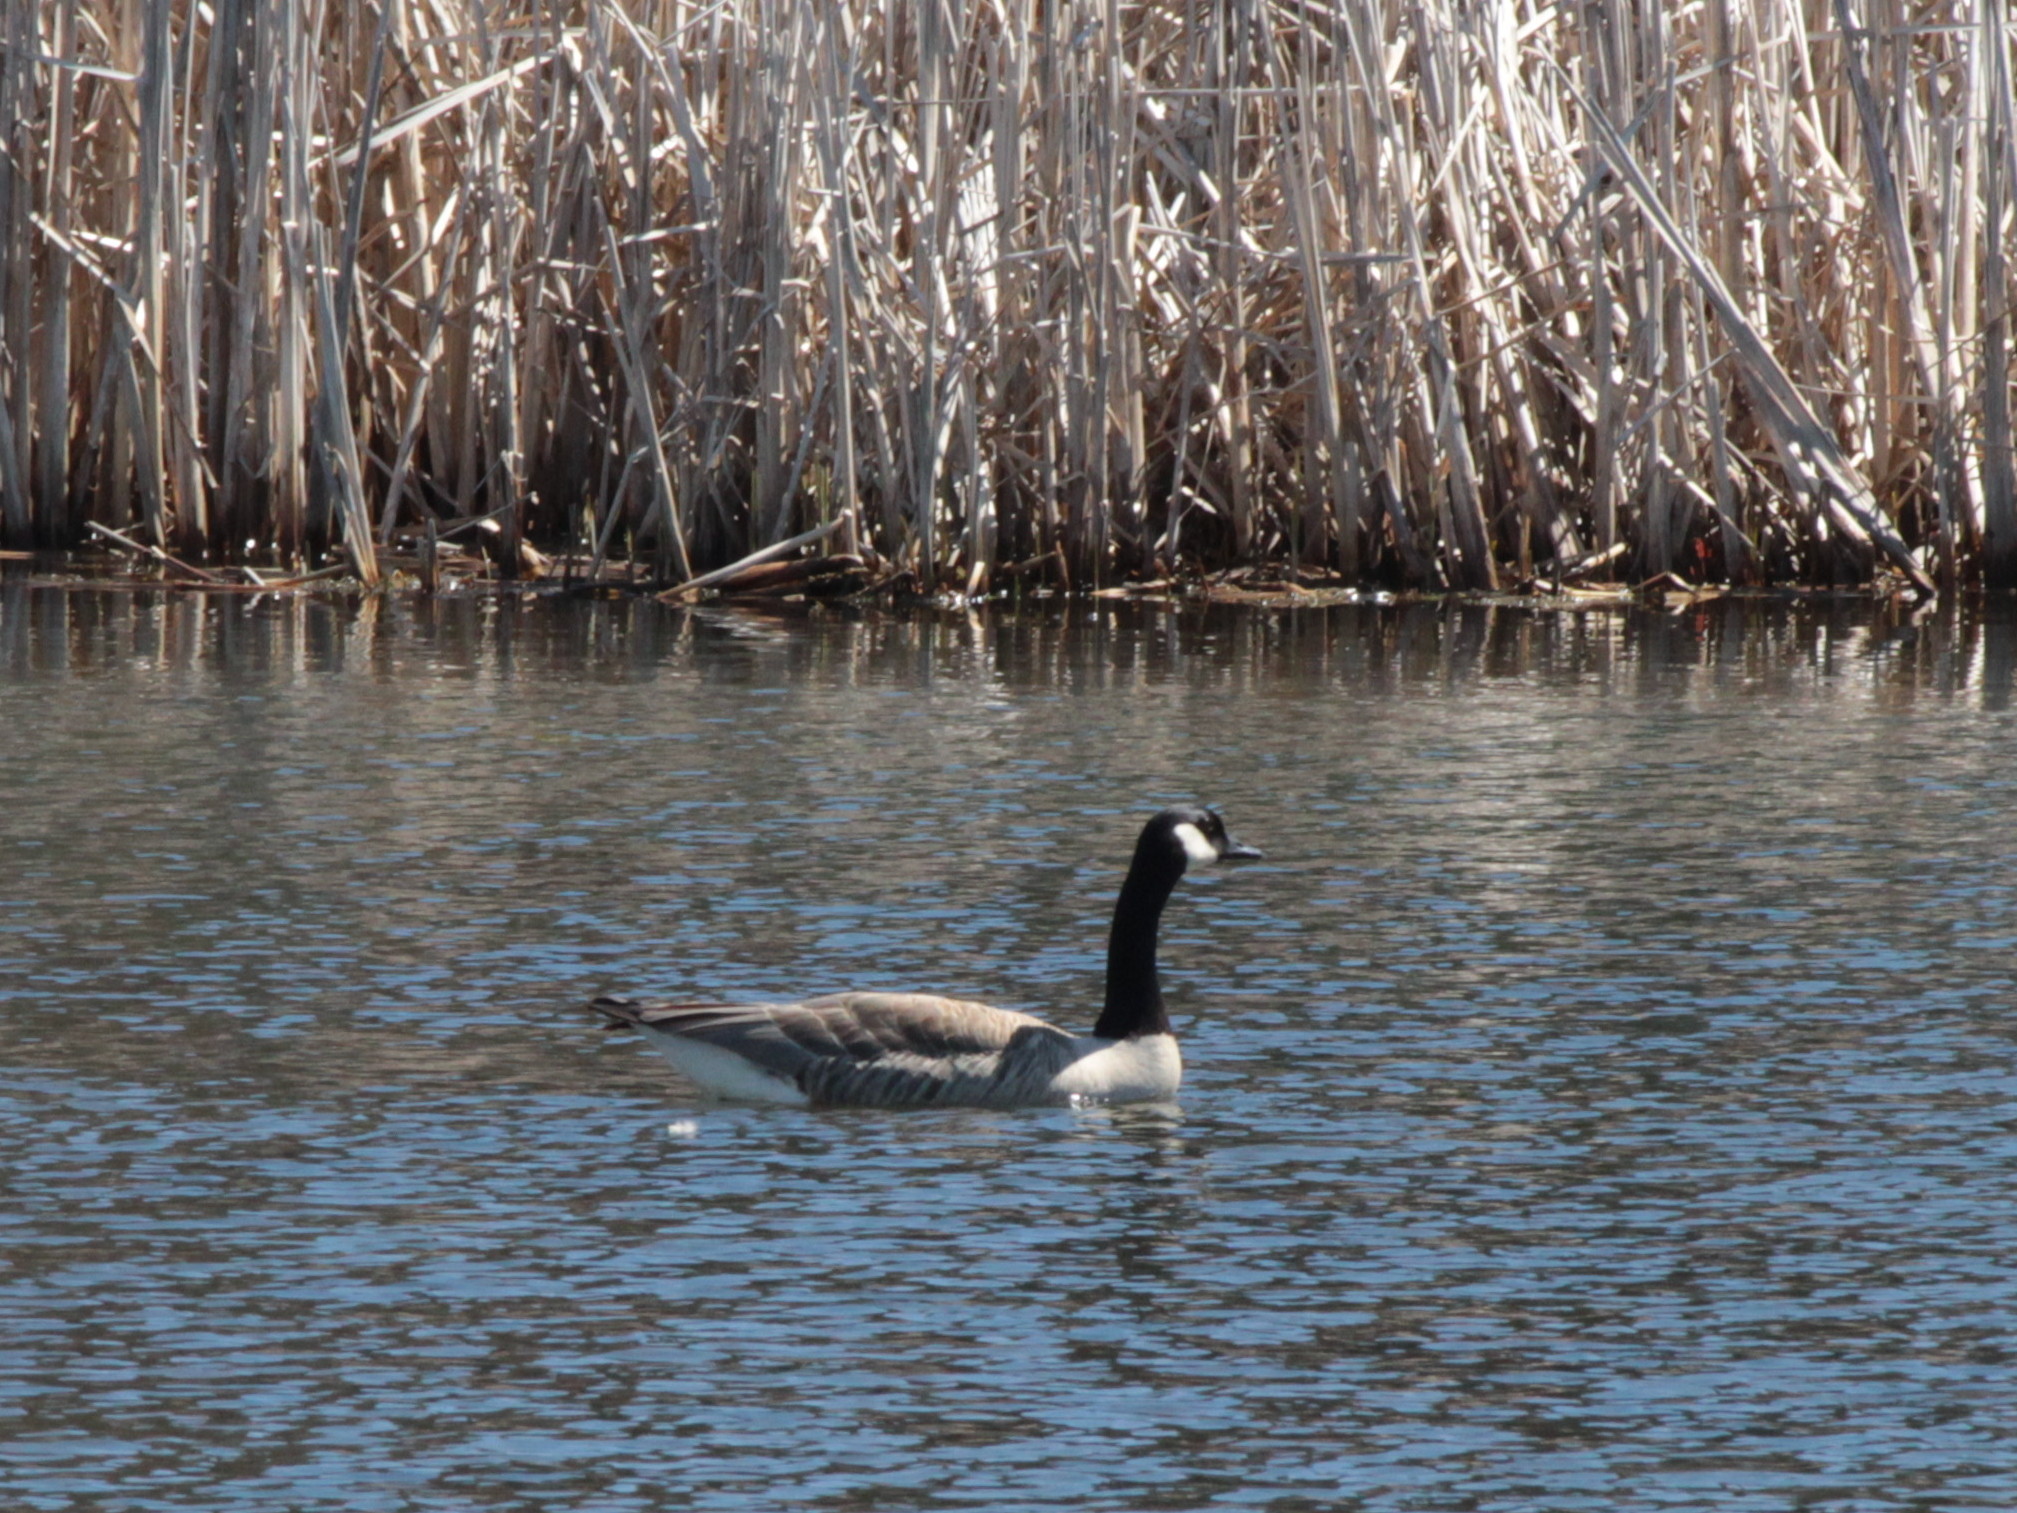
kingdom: Animalia
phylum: Chordata
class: Aves
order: Anseriformes
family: Anatidae
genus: Branta
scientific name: Branta canadensis
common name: Canada goose
